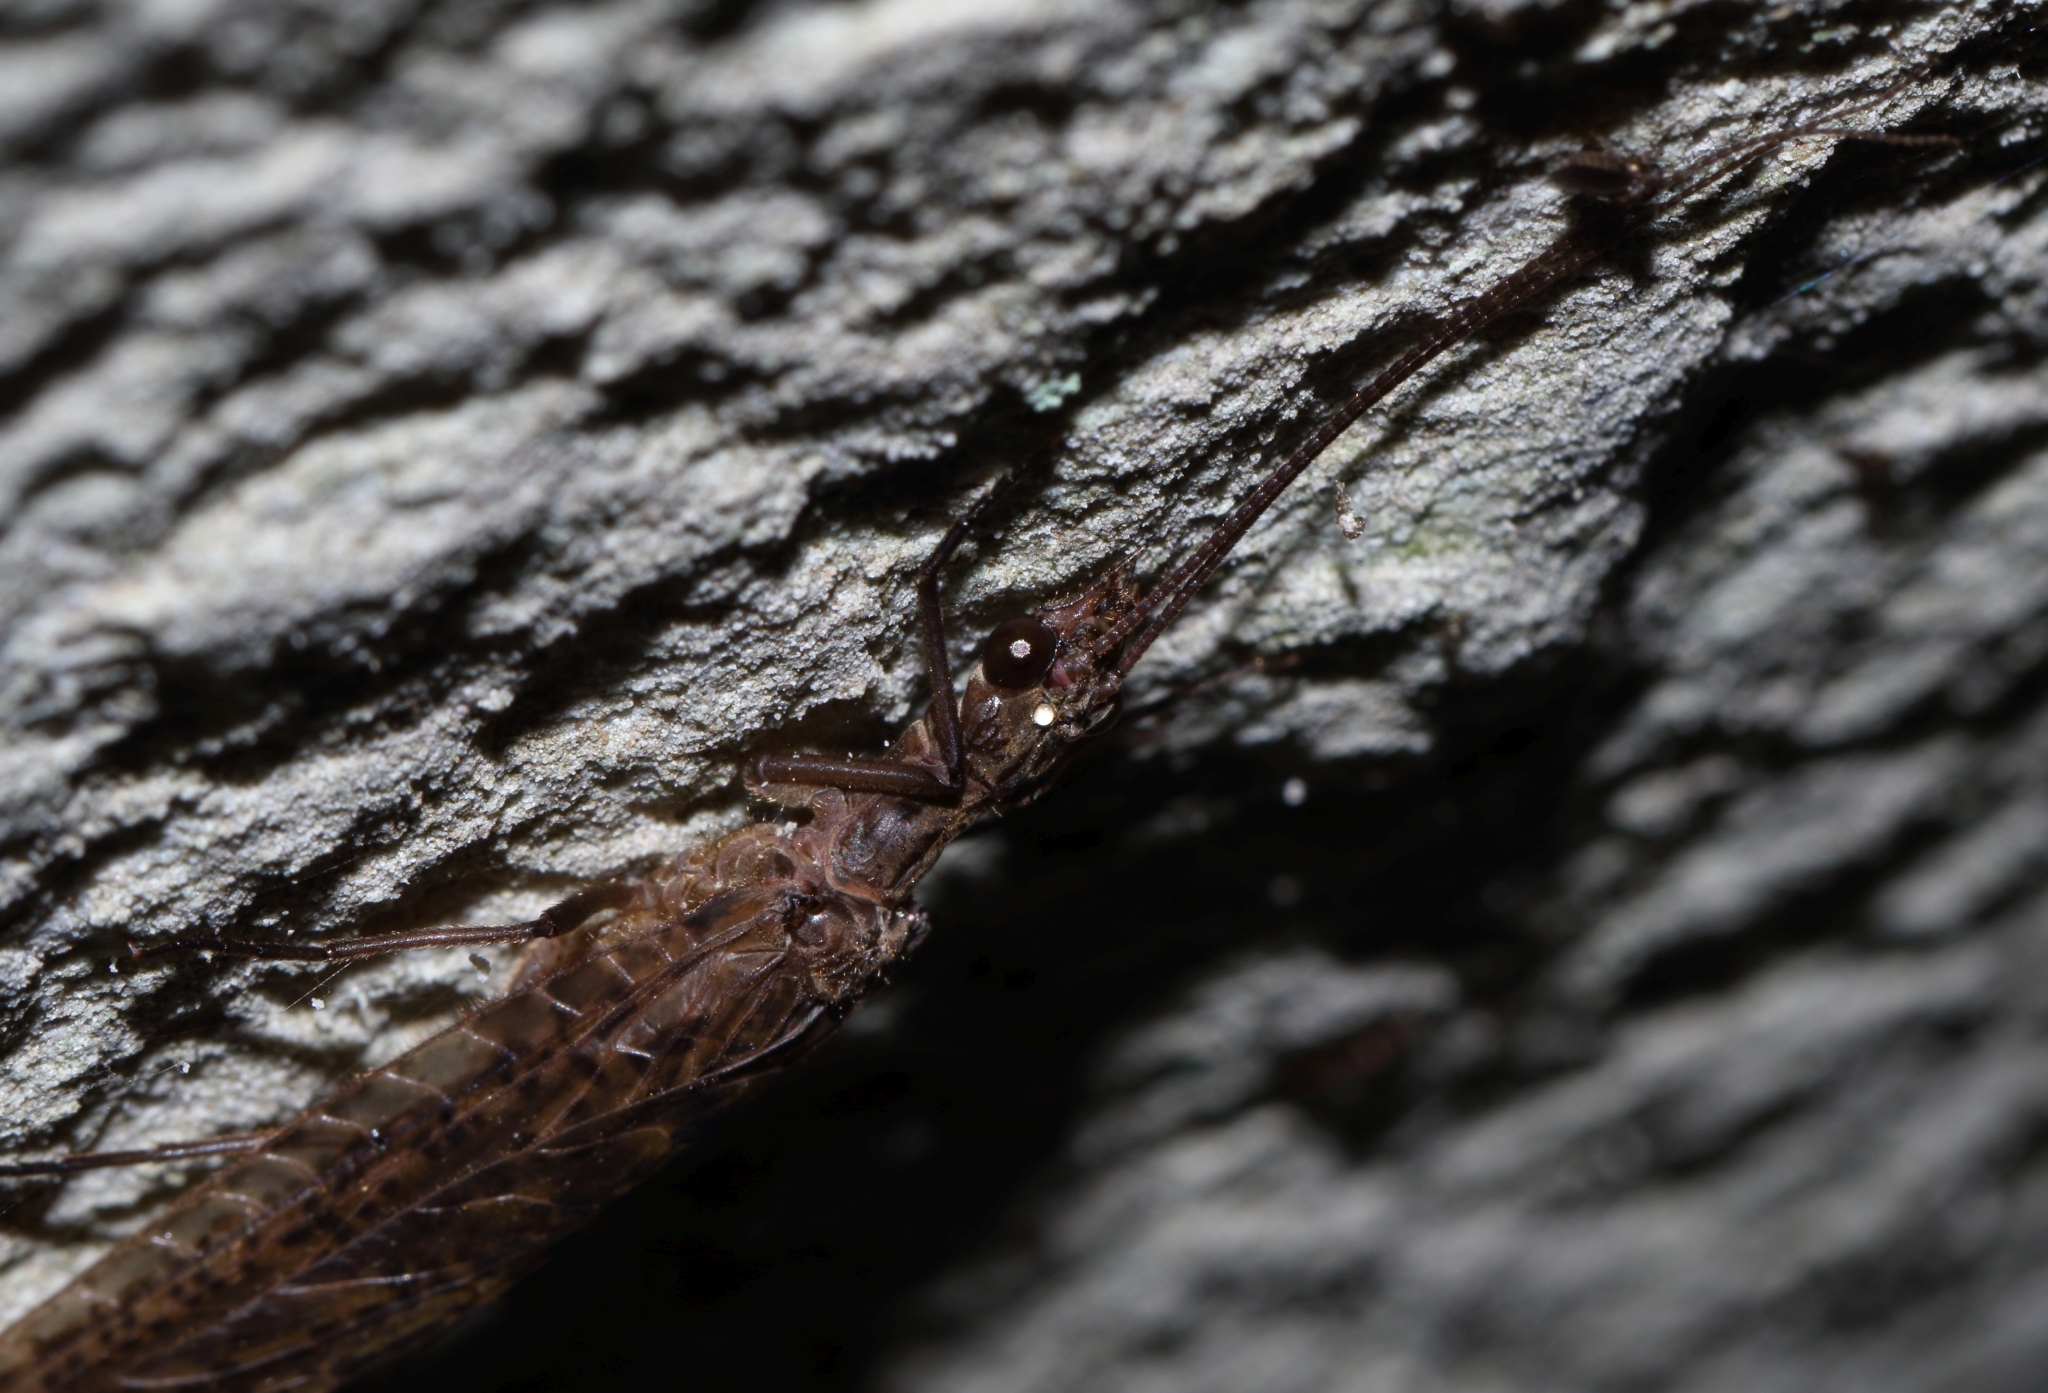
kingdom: Animalia
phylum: Arthropoda
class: Insecta
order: Megaloptera
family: Corydalidae
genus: Taeniochauliodes
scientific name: Taeniochauliodes natalensis
